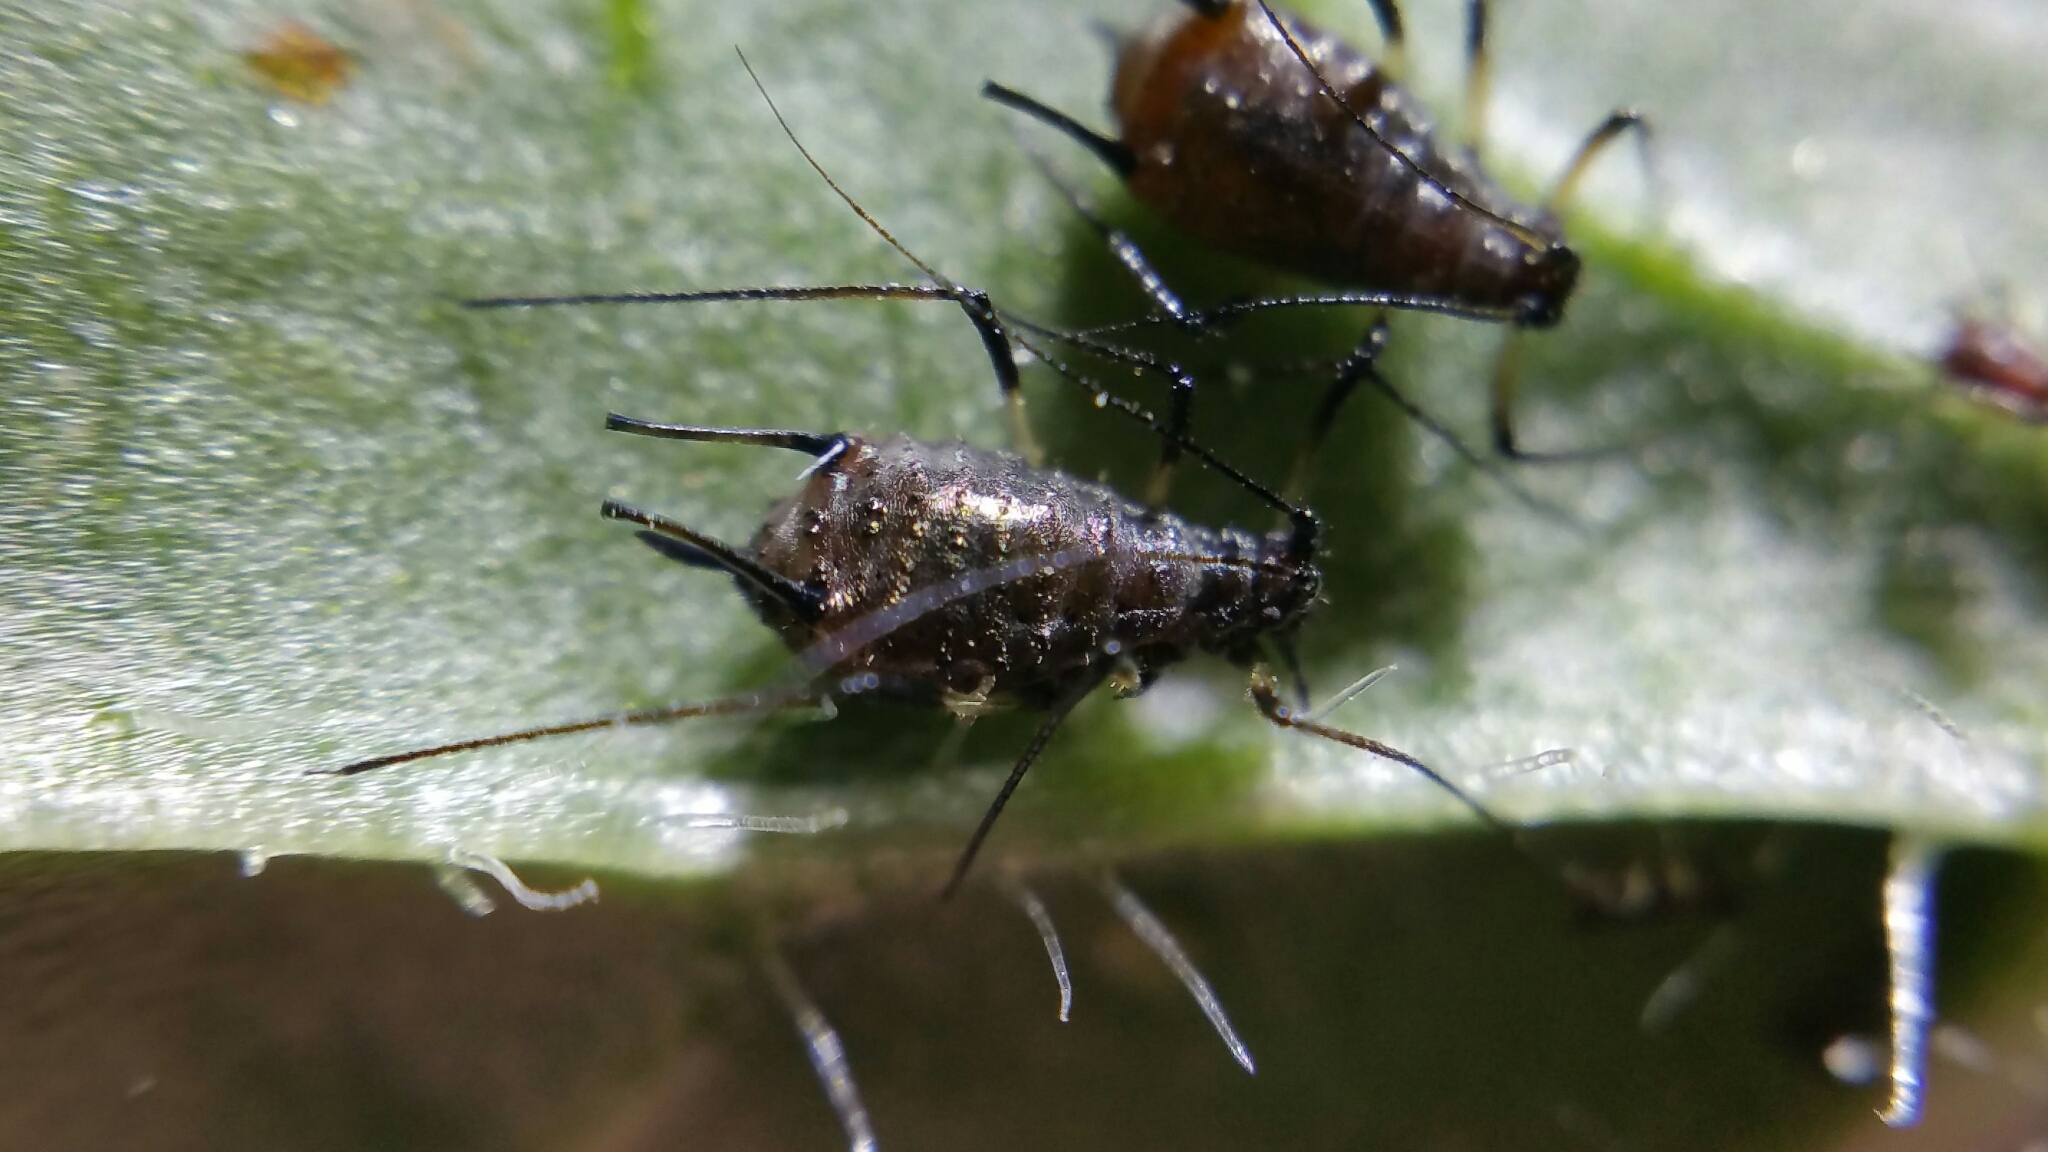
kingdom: Animalia
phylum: Arthropoda
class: Insecta
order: Hemiptera
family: Aphididae
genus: Uroleucon
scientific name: Uroleucon aeneum
